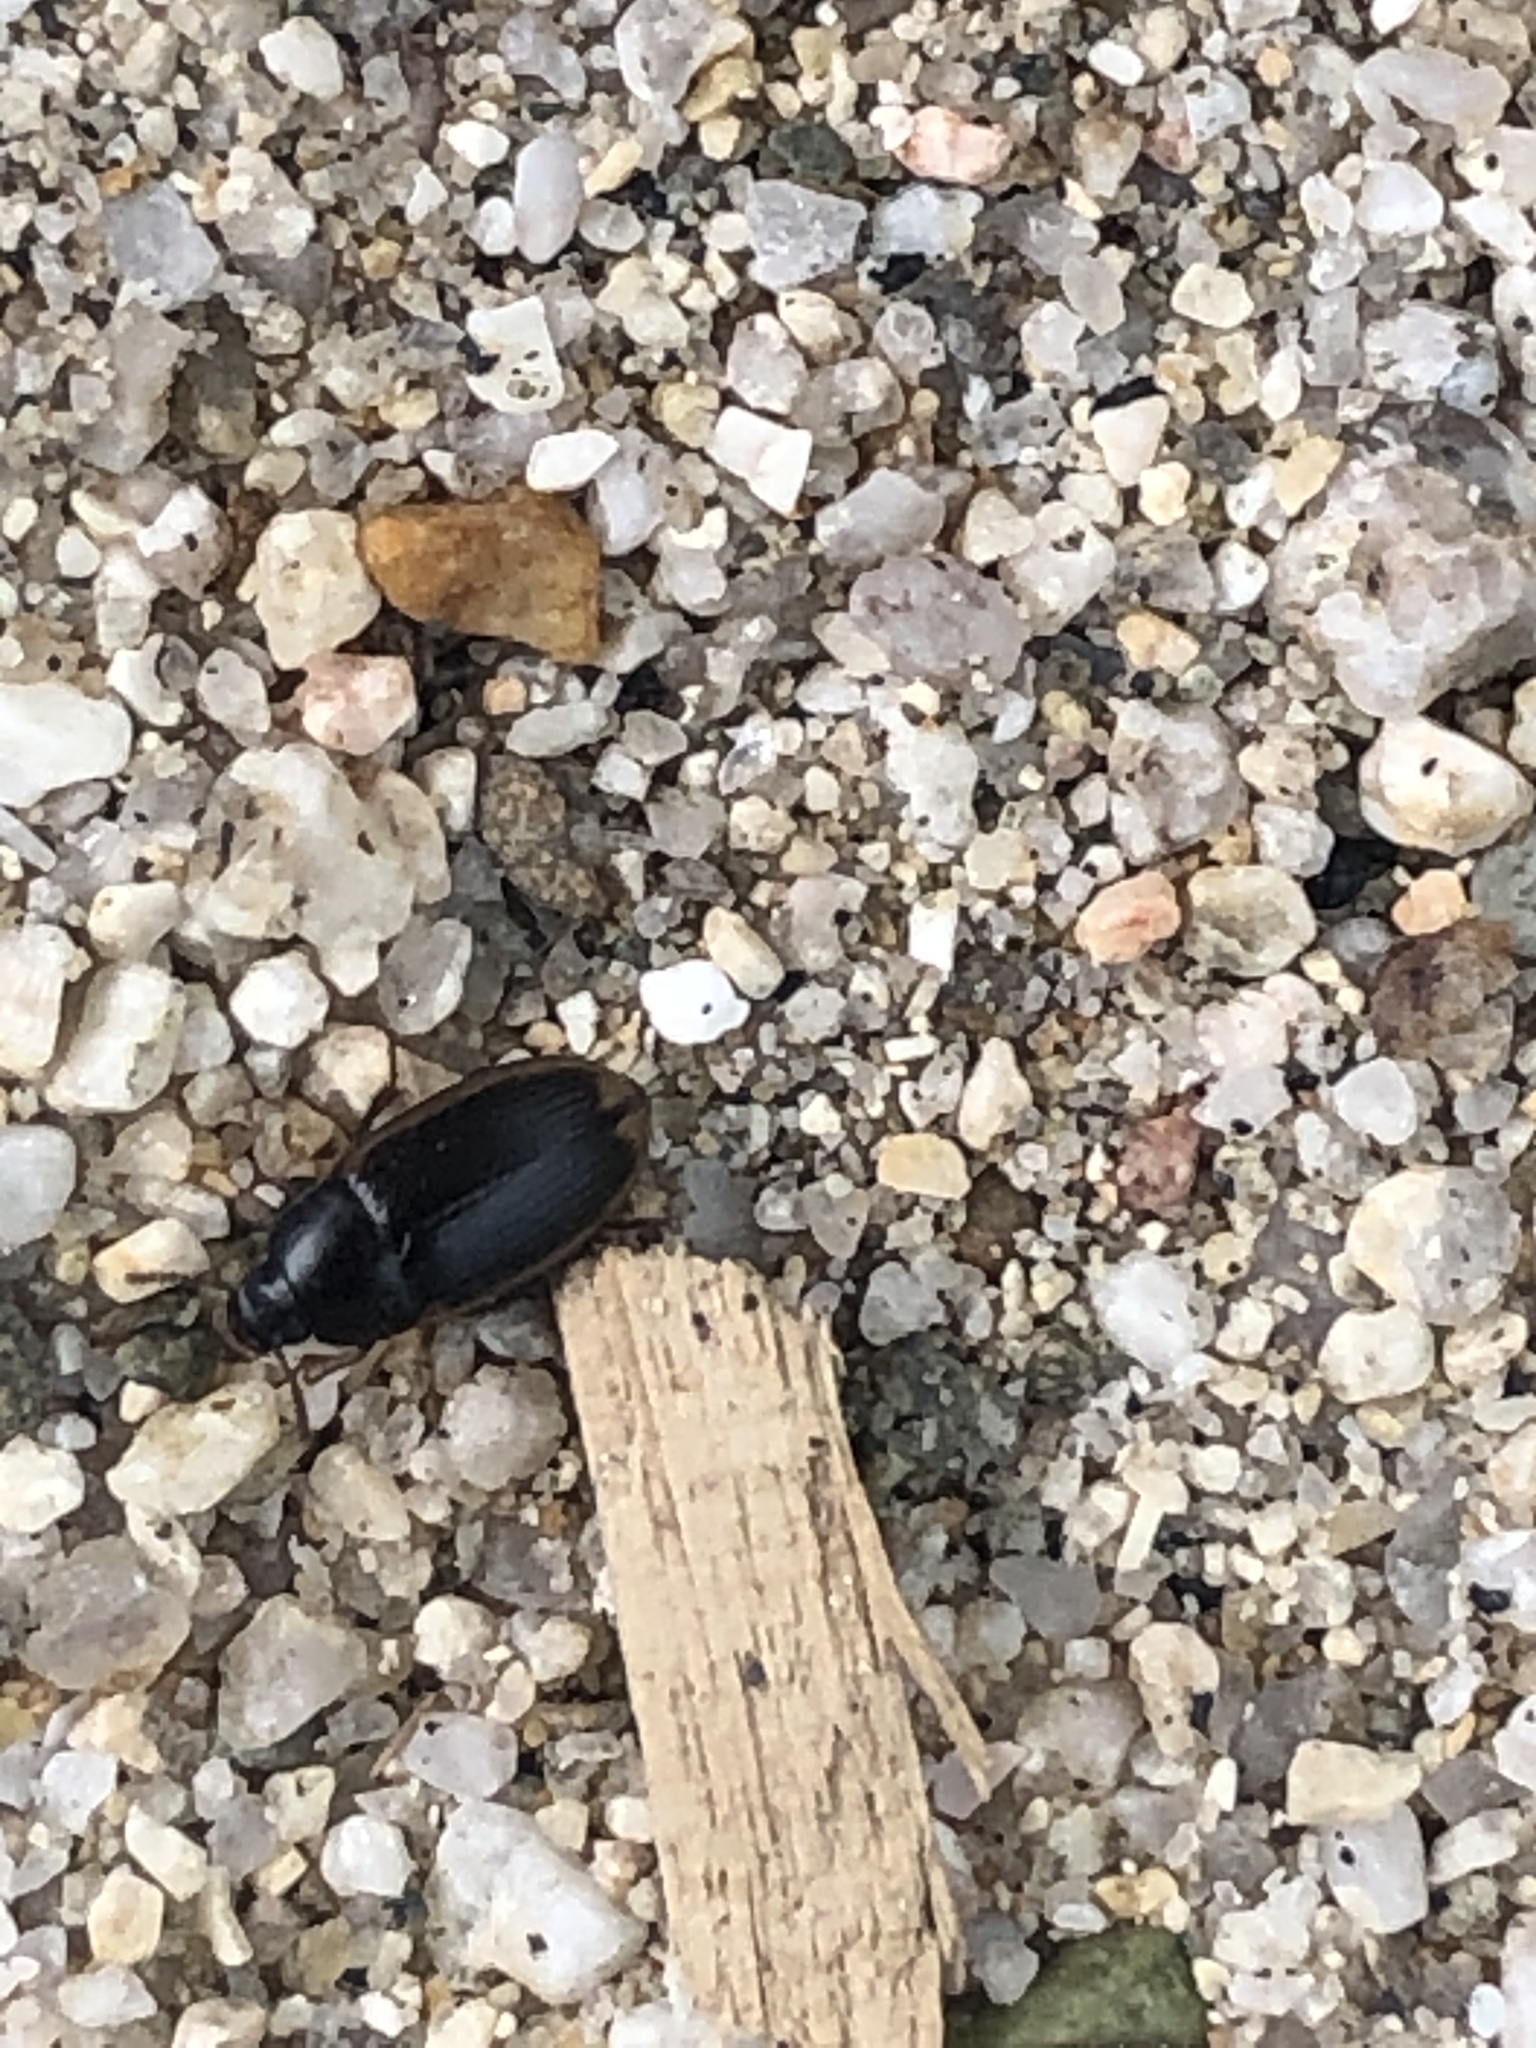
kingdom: Animalia
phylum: Arthropoda
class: Insecta
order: Coleoptera
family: Tenebrionidae
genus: Phaleria
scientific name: Phaleria panamensis
